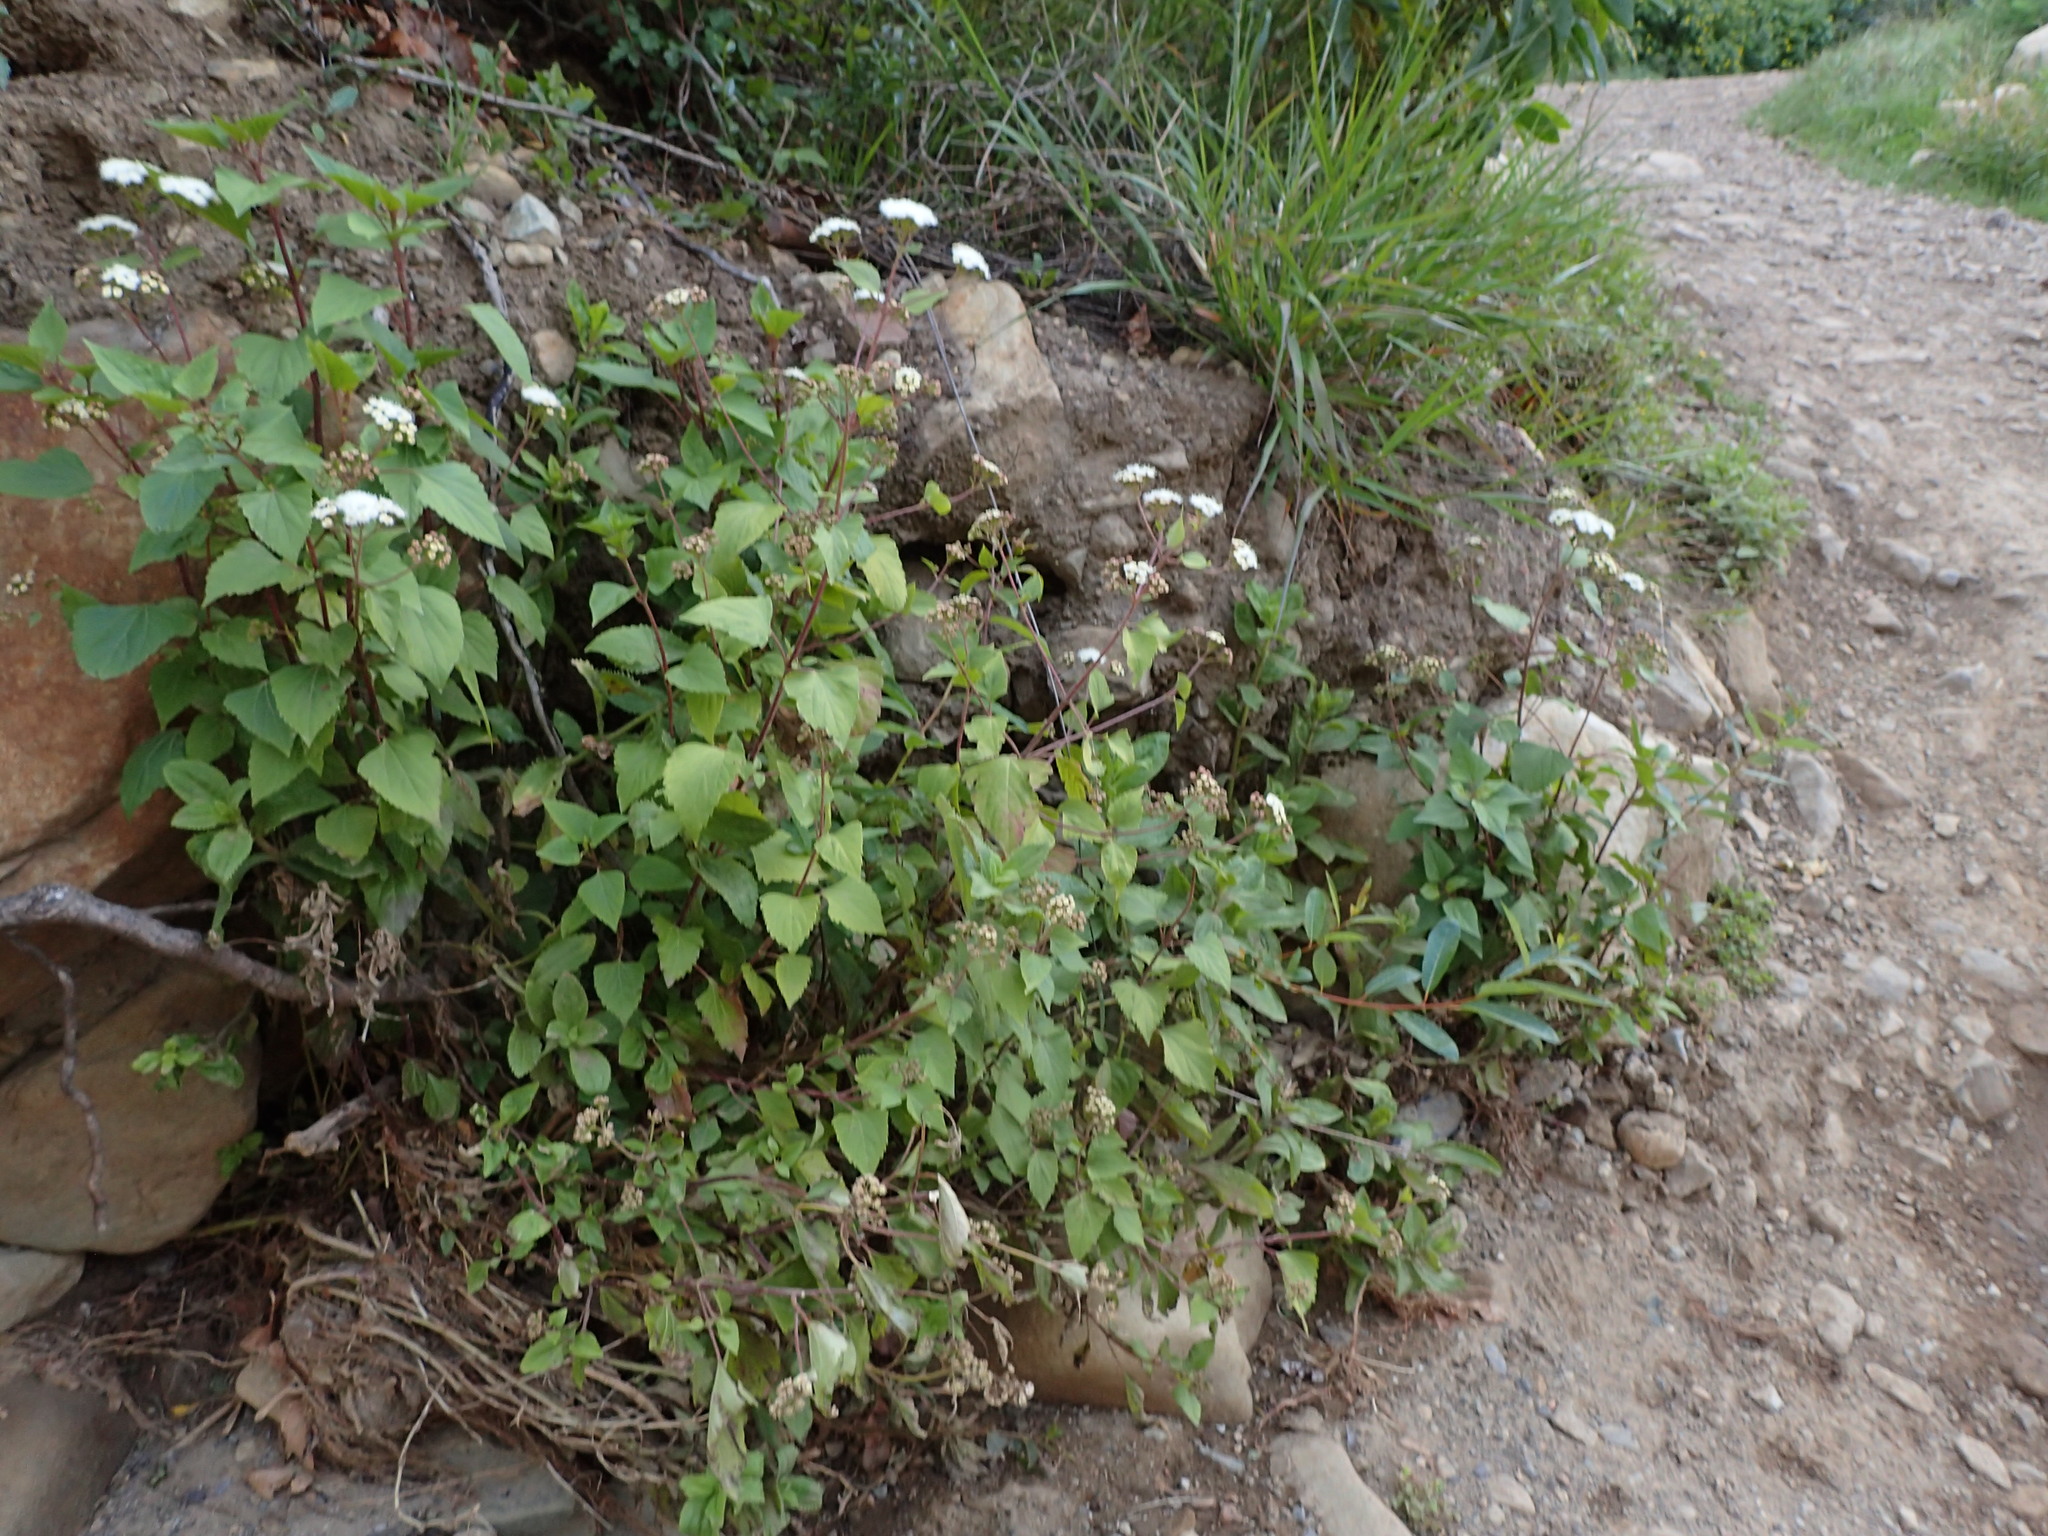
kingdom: Plantae
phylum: Tracheophyta
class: Magnoliopsida
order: Asterales
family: Asteraceae
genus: Ageratina
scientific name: Ageratina adenophora
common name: Sticky snakeroot
